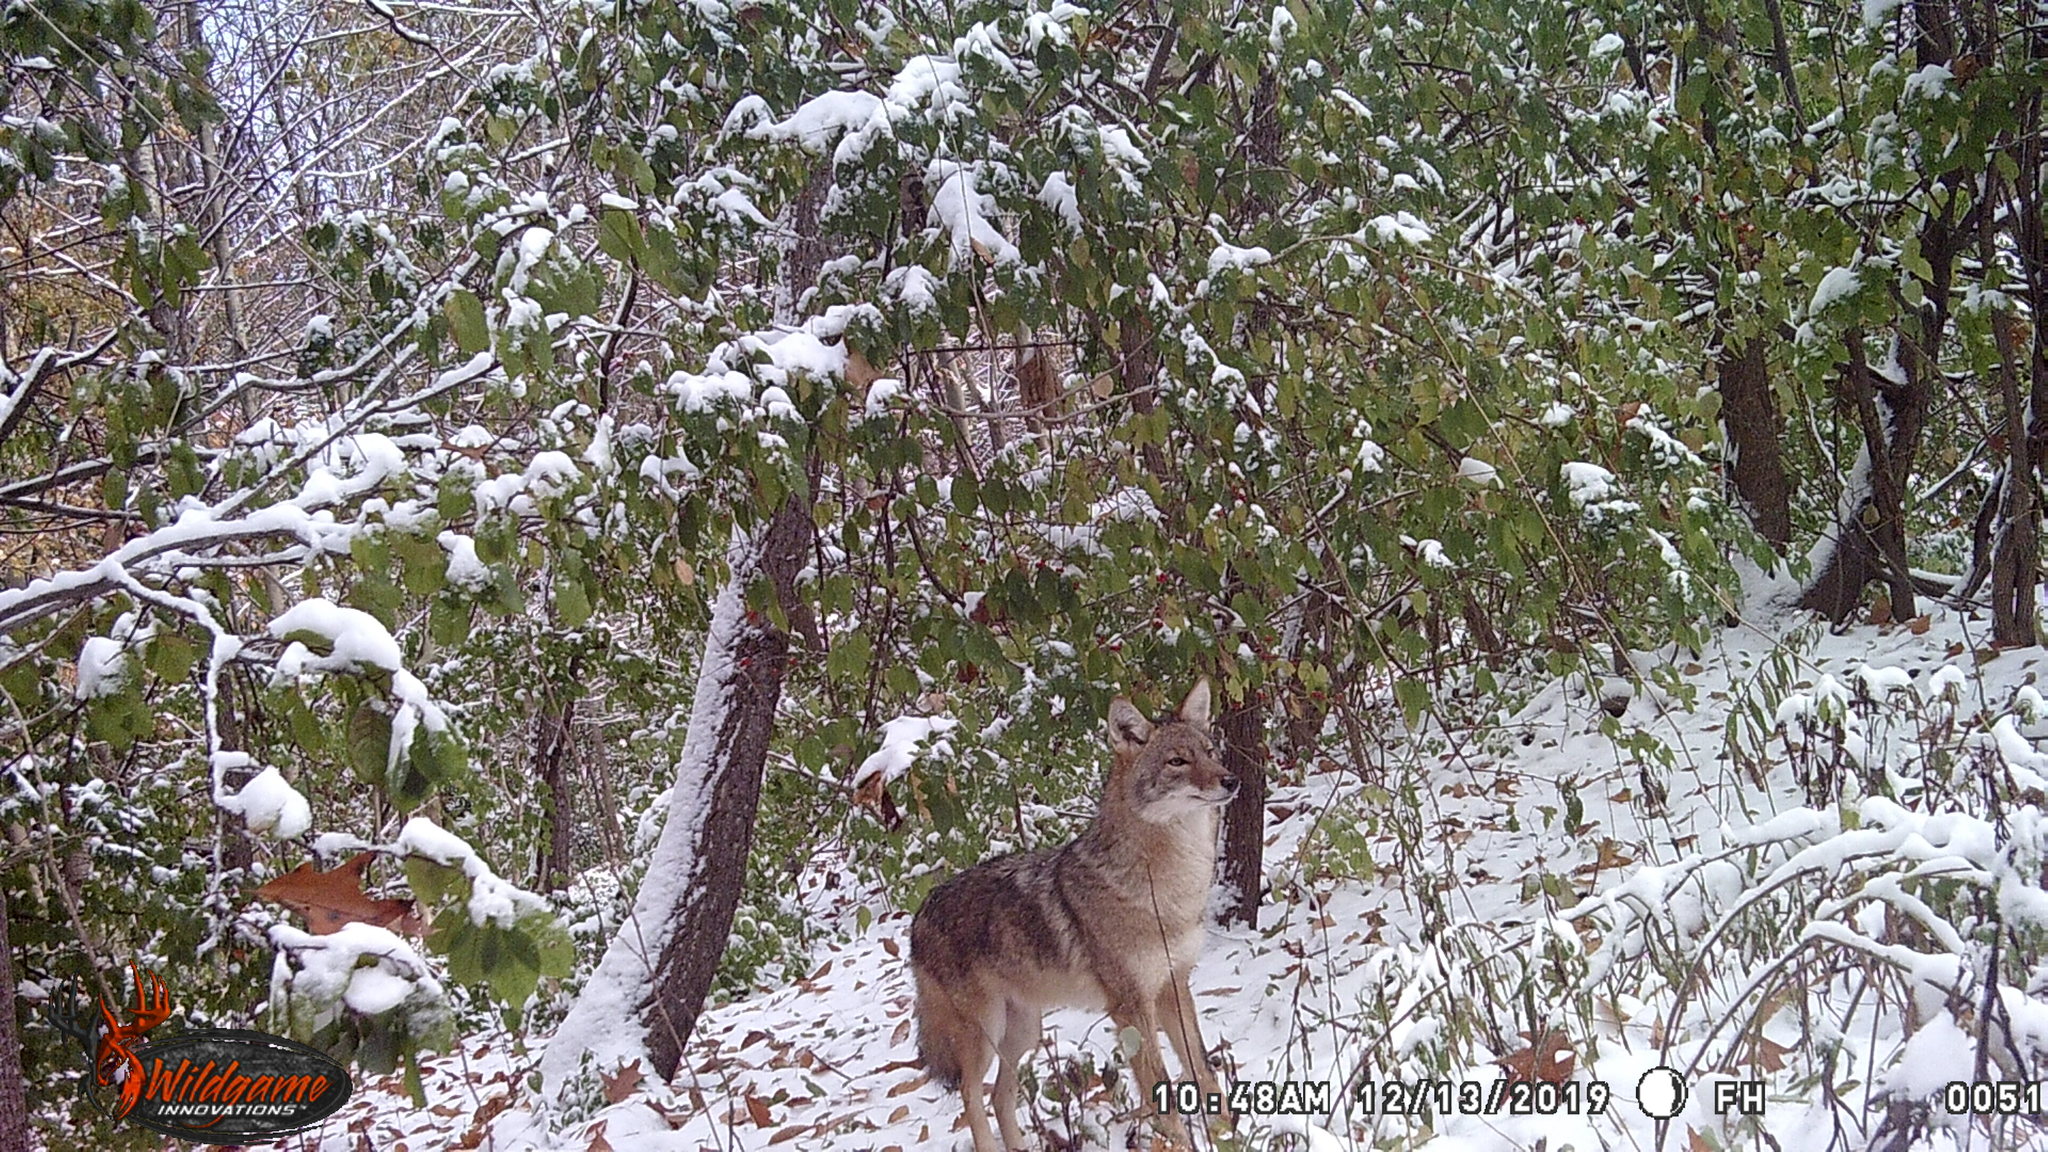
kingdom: Animalia
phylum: Chordata
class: Mammalia
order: Carnivora
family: Canidae
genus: Canis
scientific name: Canis latrans
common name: Coyote
